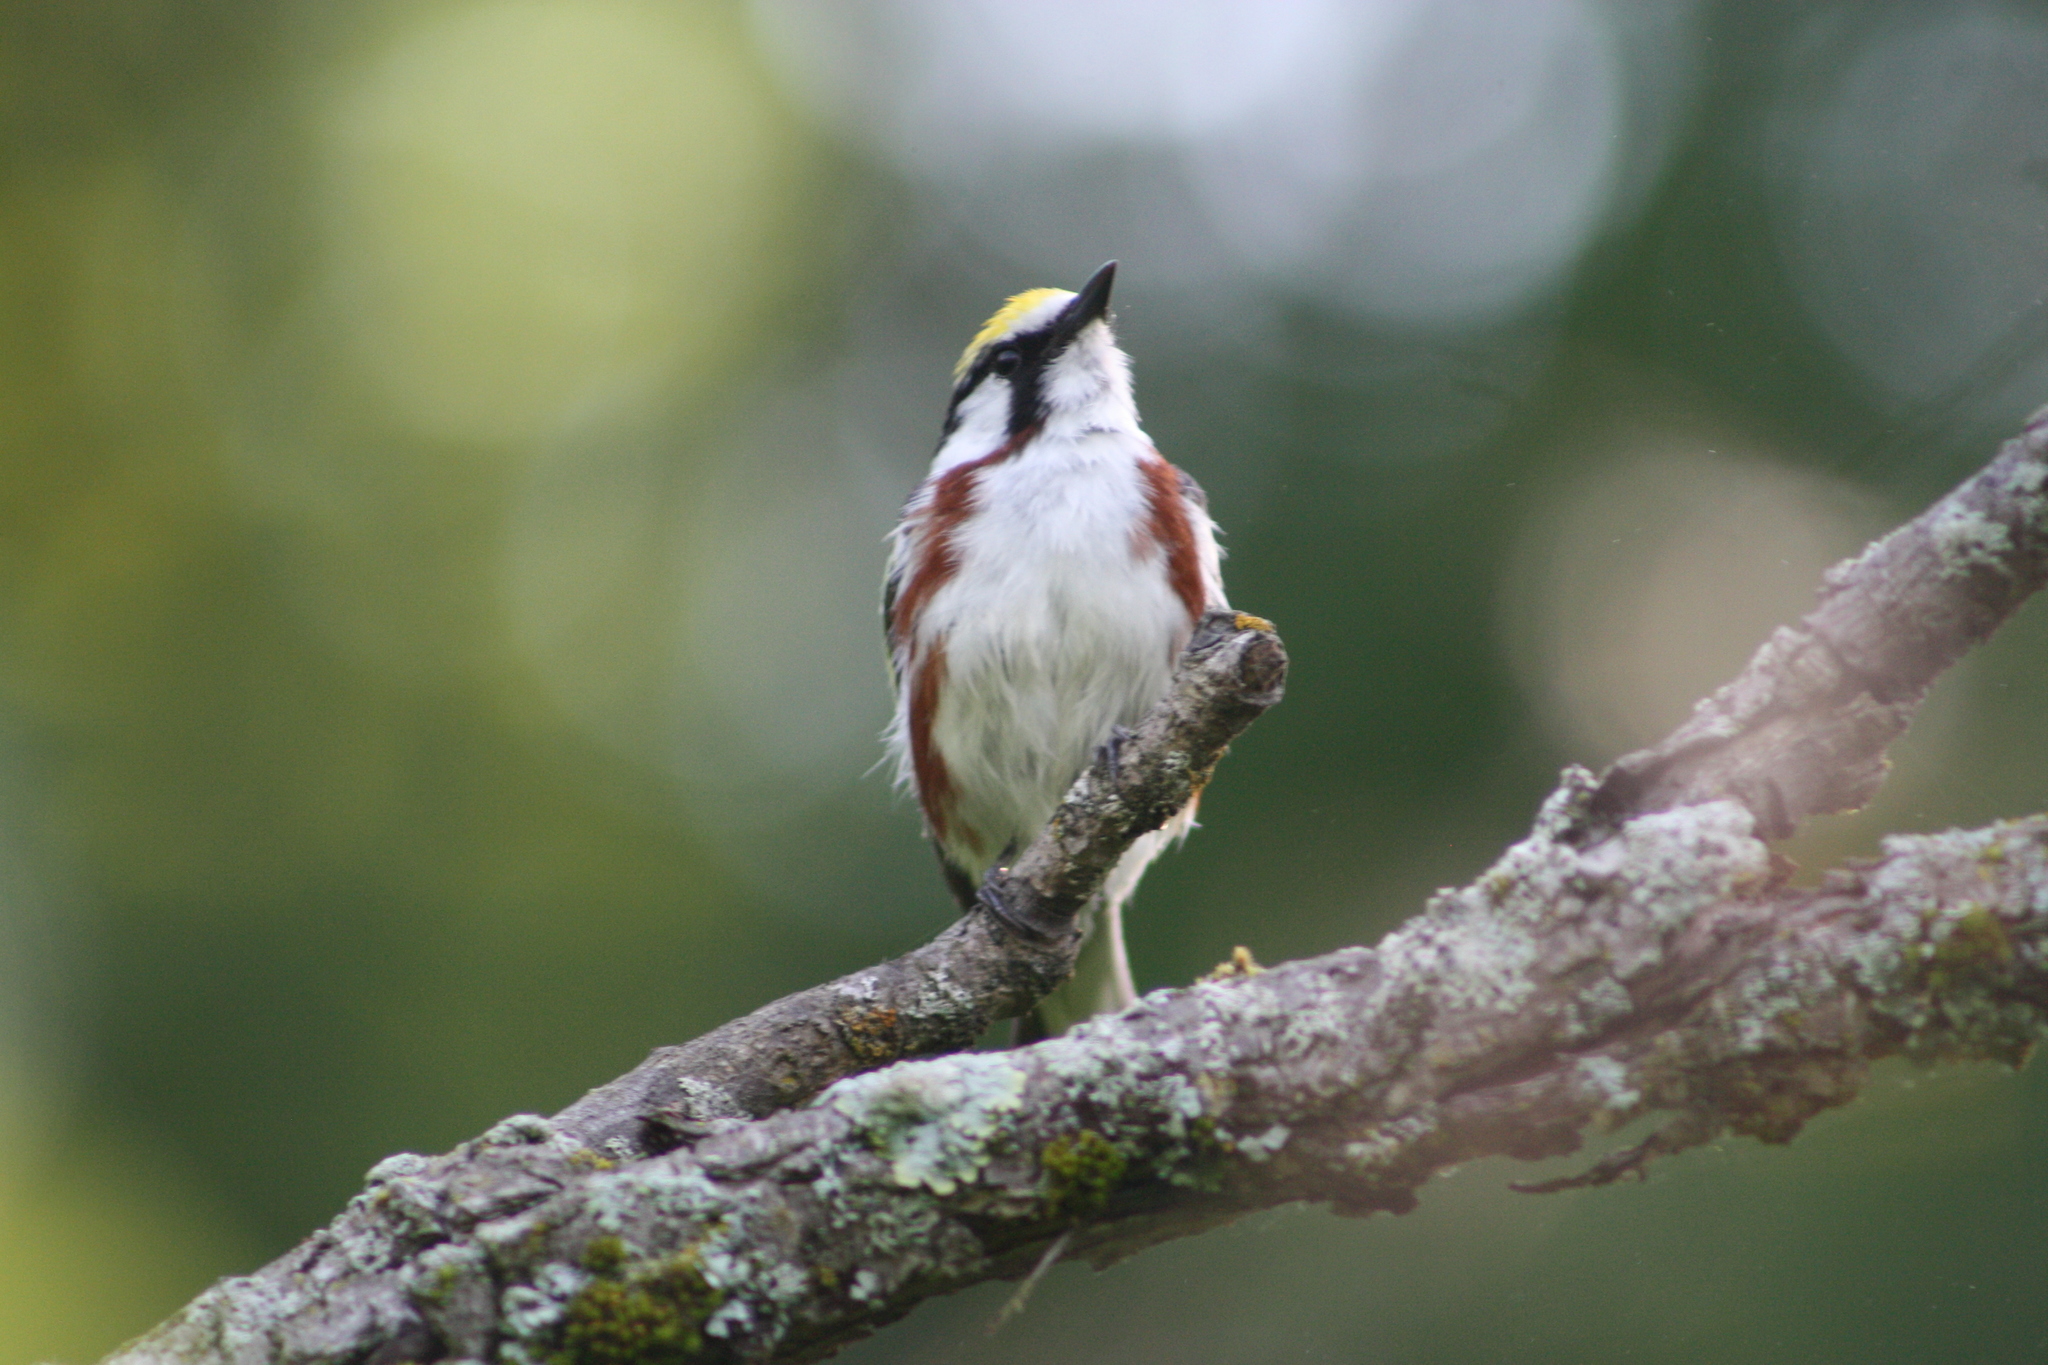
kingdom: Animalia
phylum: Chordata
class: Aves
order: Passeriformes
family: Parulidae
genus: Setophaga
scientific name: Setophaga pensylvanica
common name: Chestnut-sided warbler
